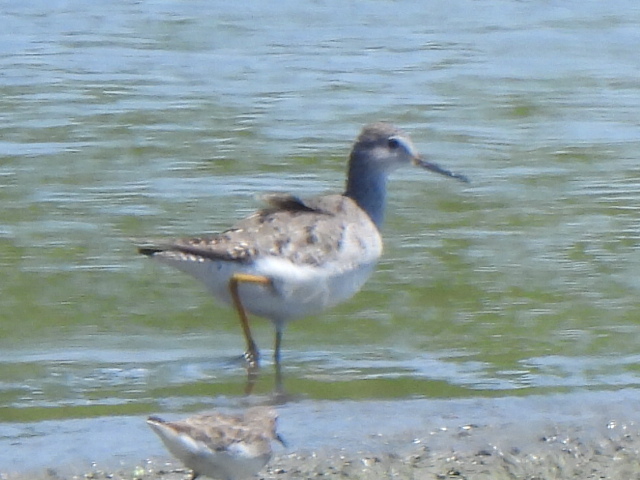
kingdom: Animalia
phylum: Chordata
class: Aves
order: Charadriiformes
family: Scolopacidae
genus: Tringa
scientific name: Tringa flavipes
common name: Lesser yellowlegs
